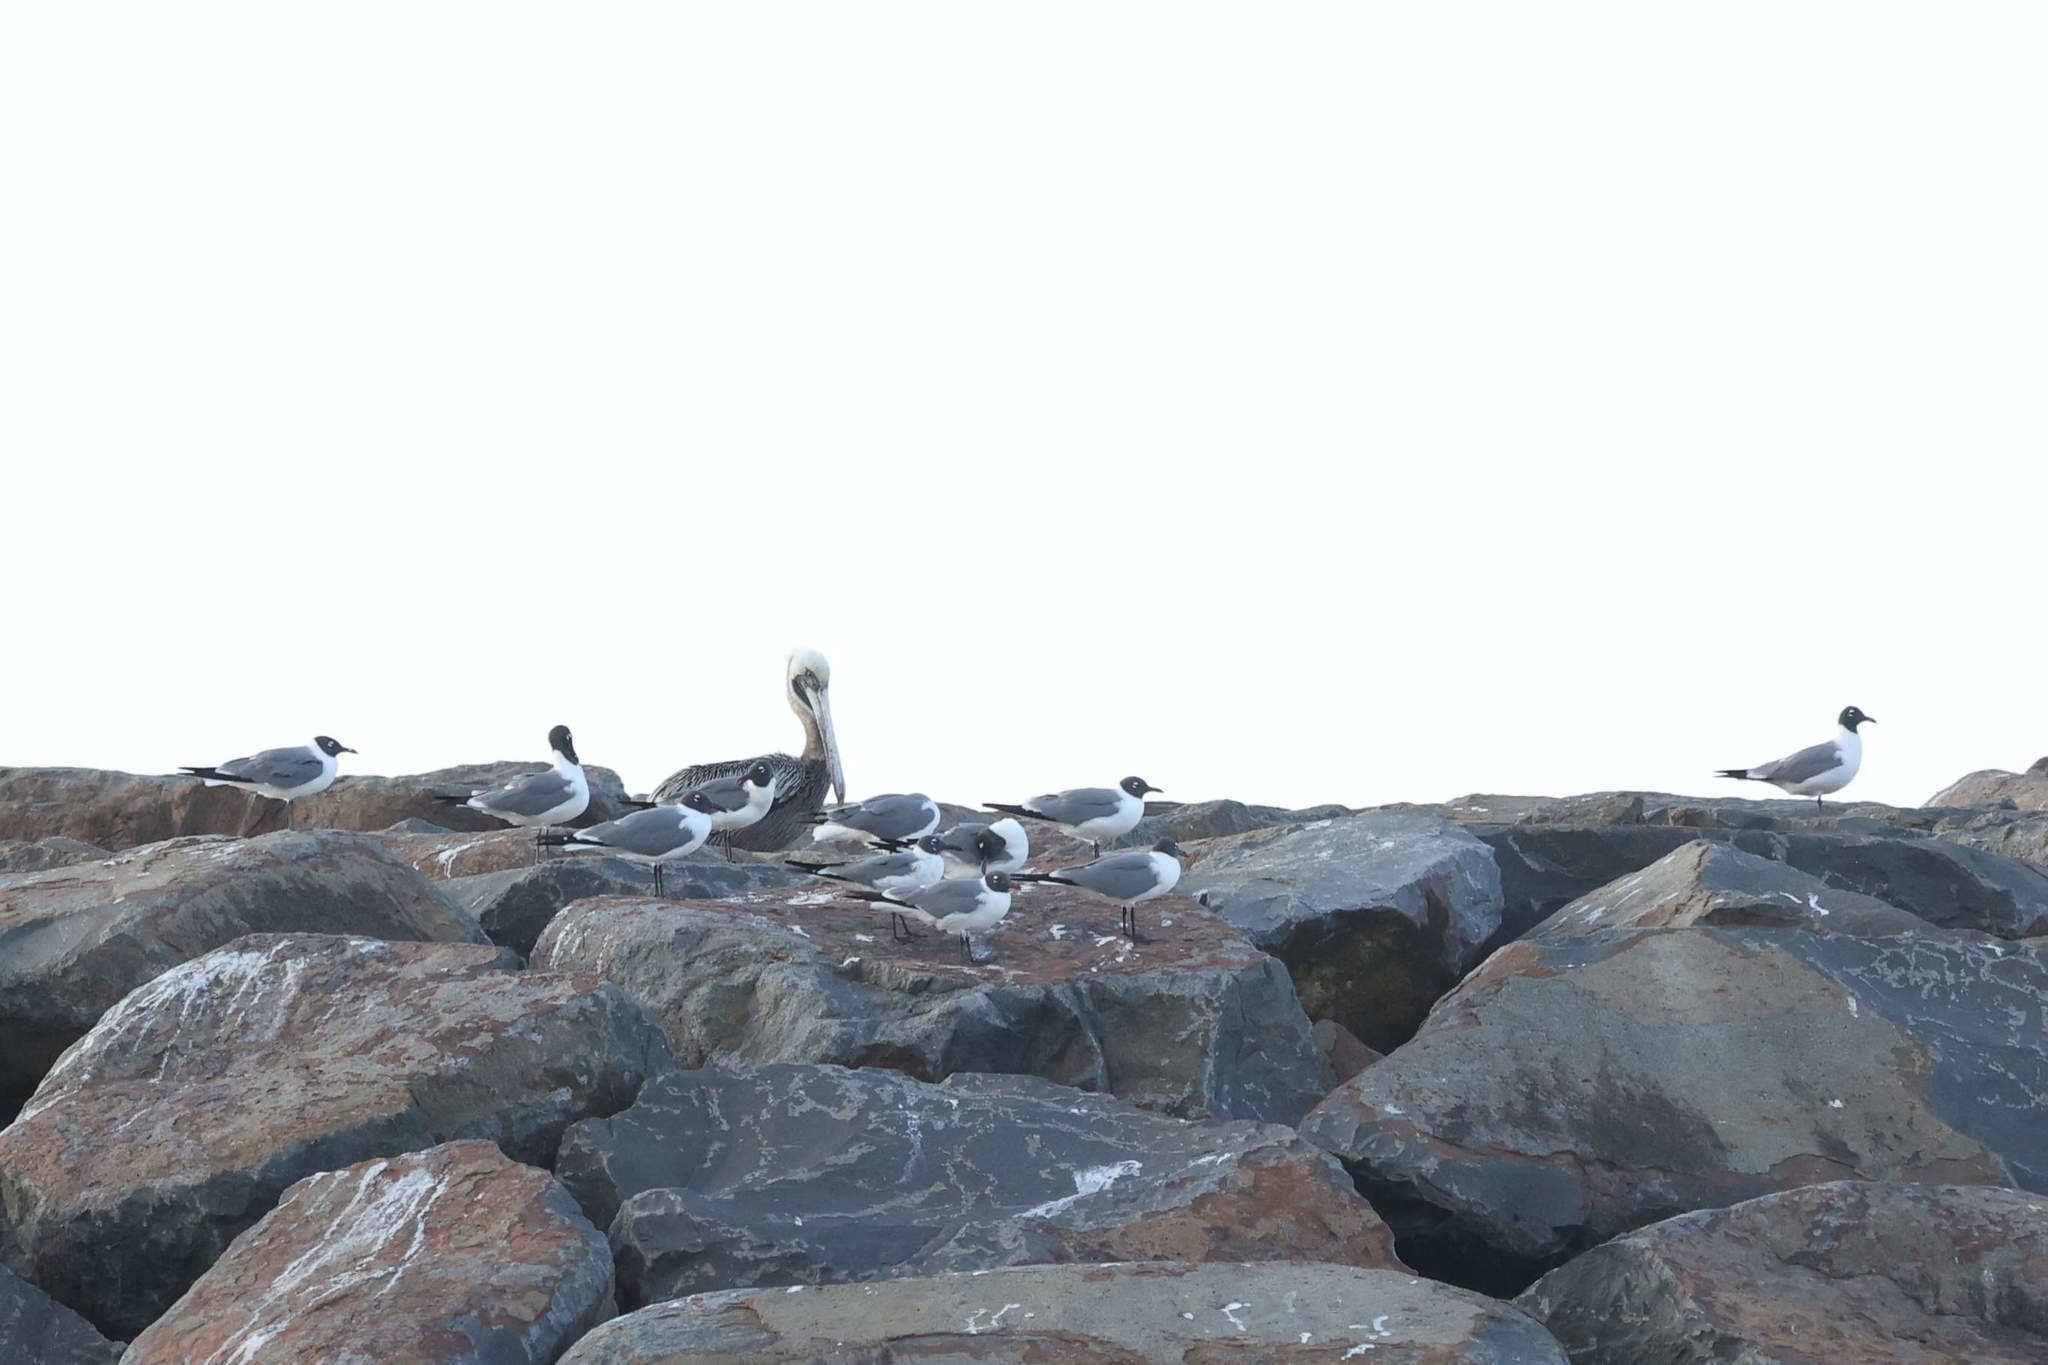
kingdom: Animalia
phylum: Chordata
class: Aves
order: Pelecaniformes
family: Pelecanidae
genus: Pelecanus
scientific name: Pelecanus occidentalis
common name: Brown pelican
